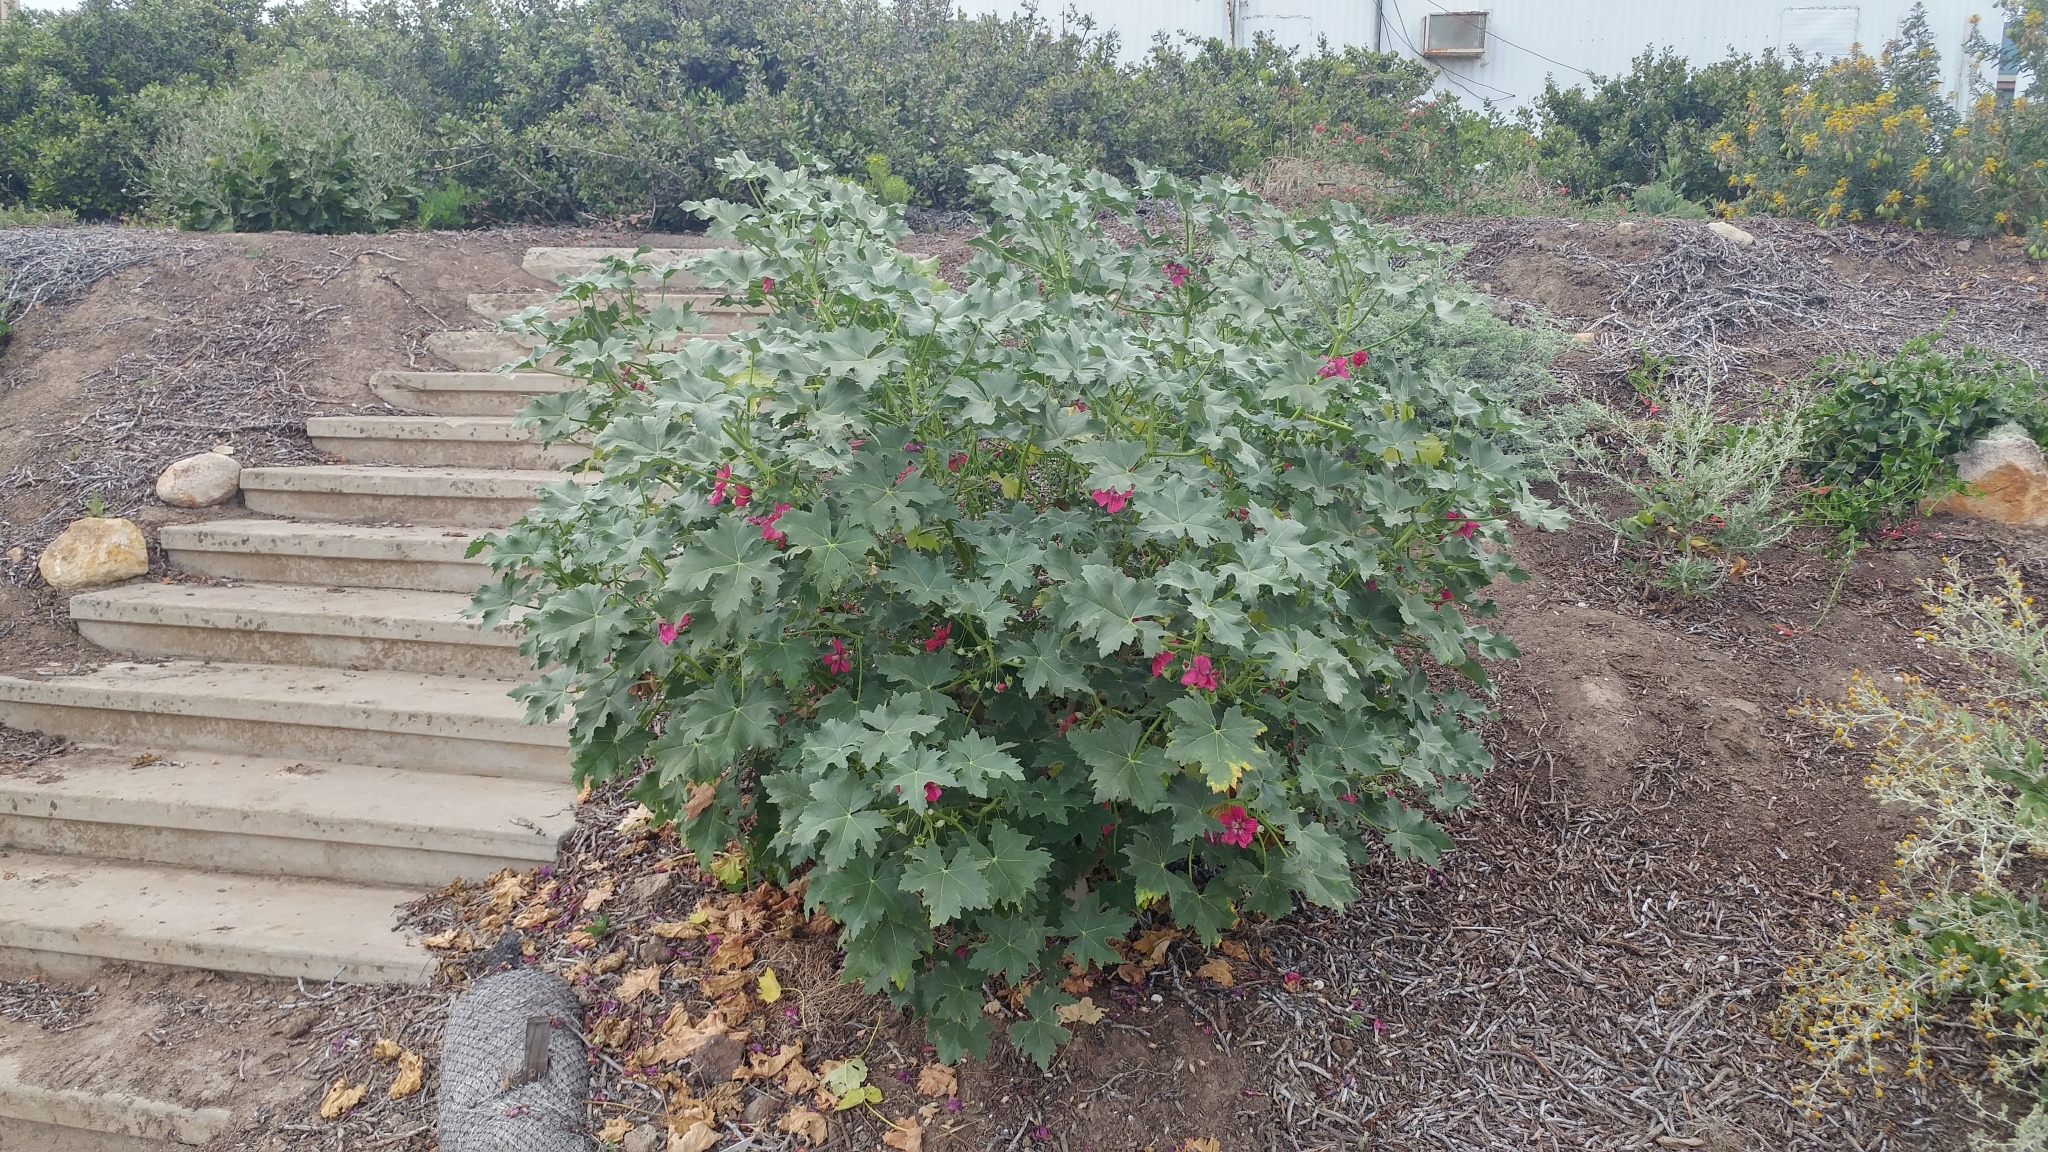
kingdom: Plantae
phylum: Tracheophyta
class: Magnoliopsida
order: Malvales
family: Malvaceae
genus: Malva
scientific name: Malva assurgentiflora
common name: Island mallow
